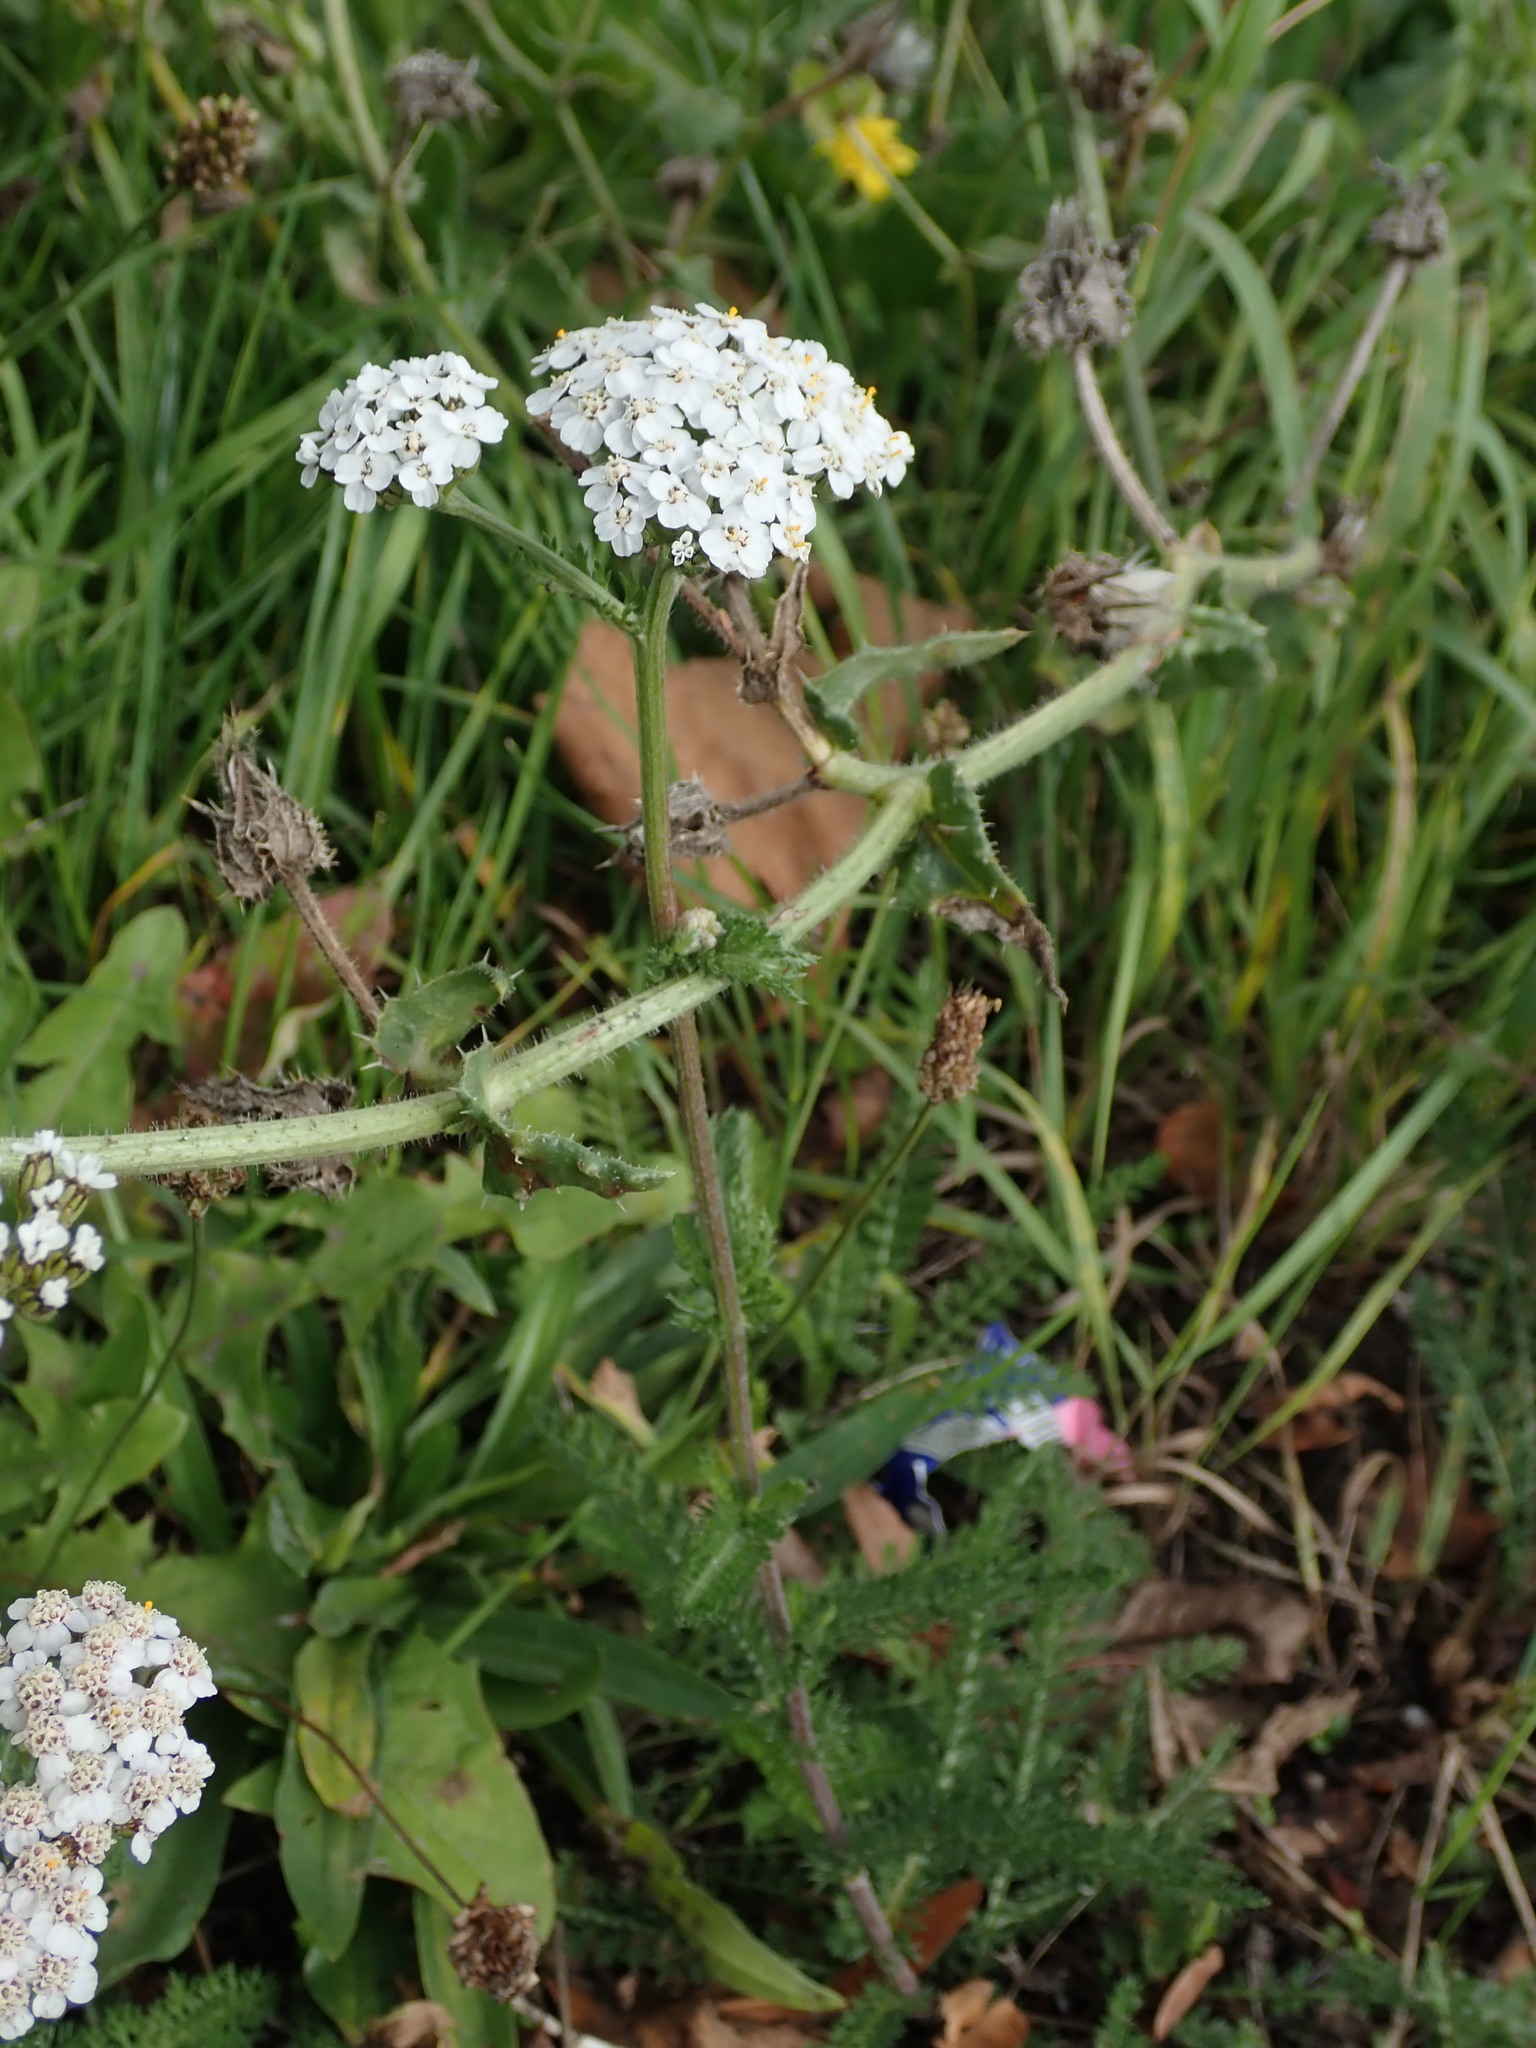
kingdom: Plantae
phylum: Tracheophyta
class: Magnoliopsida
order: Asterales
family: Asteraceae
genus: Achillea
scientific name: Achillea millefolium
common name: Yarrow
